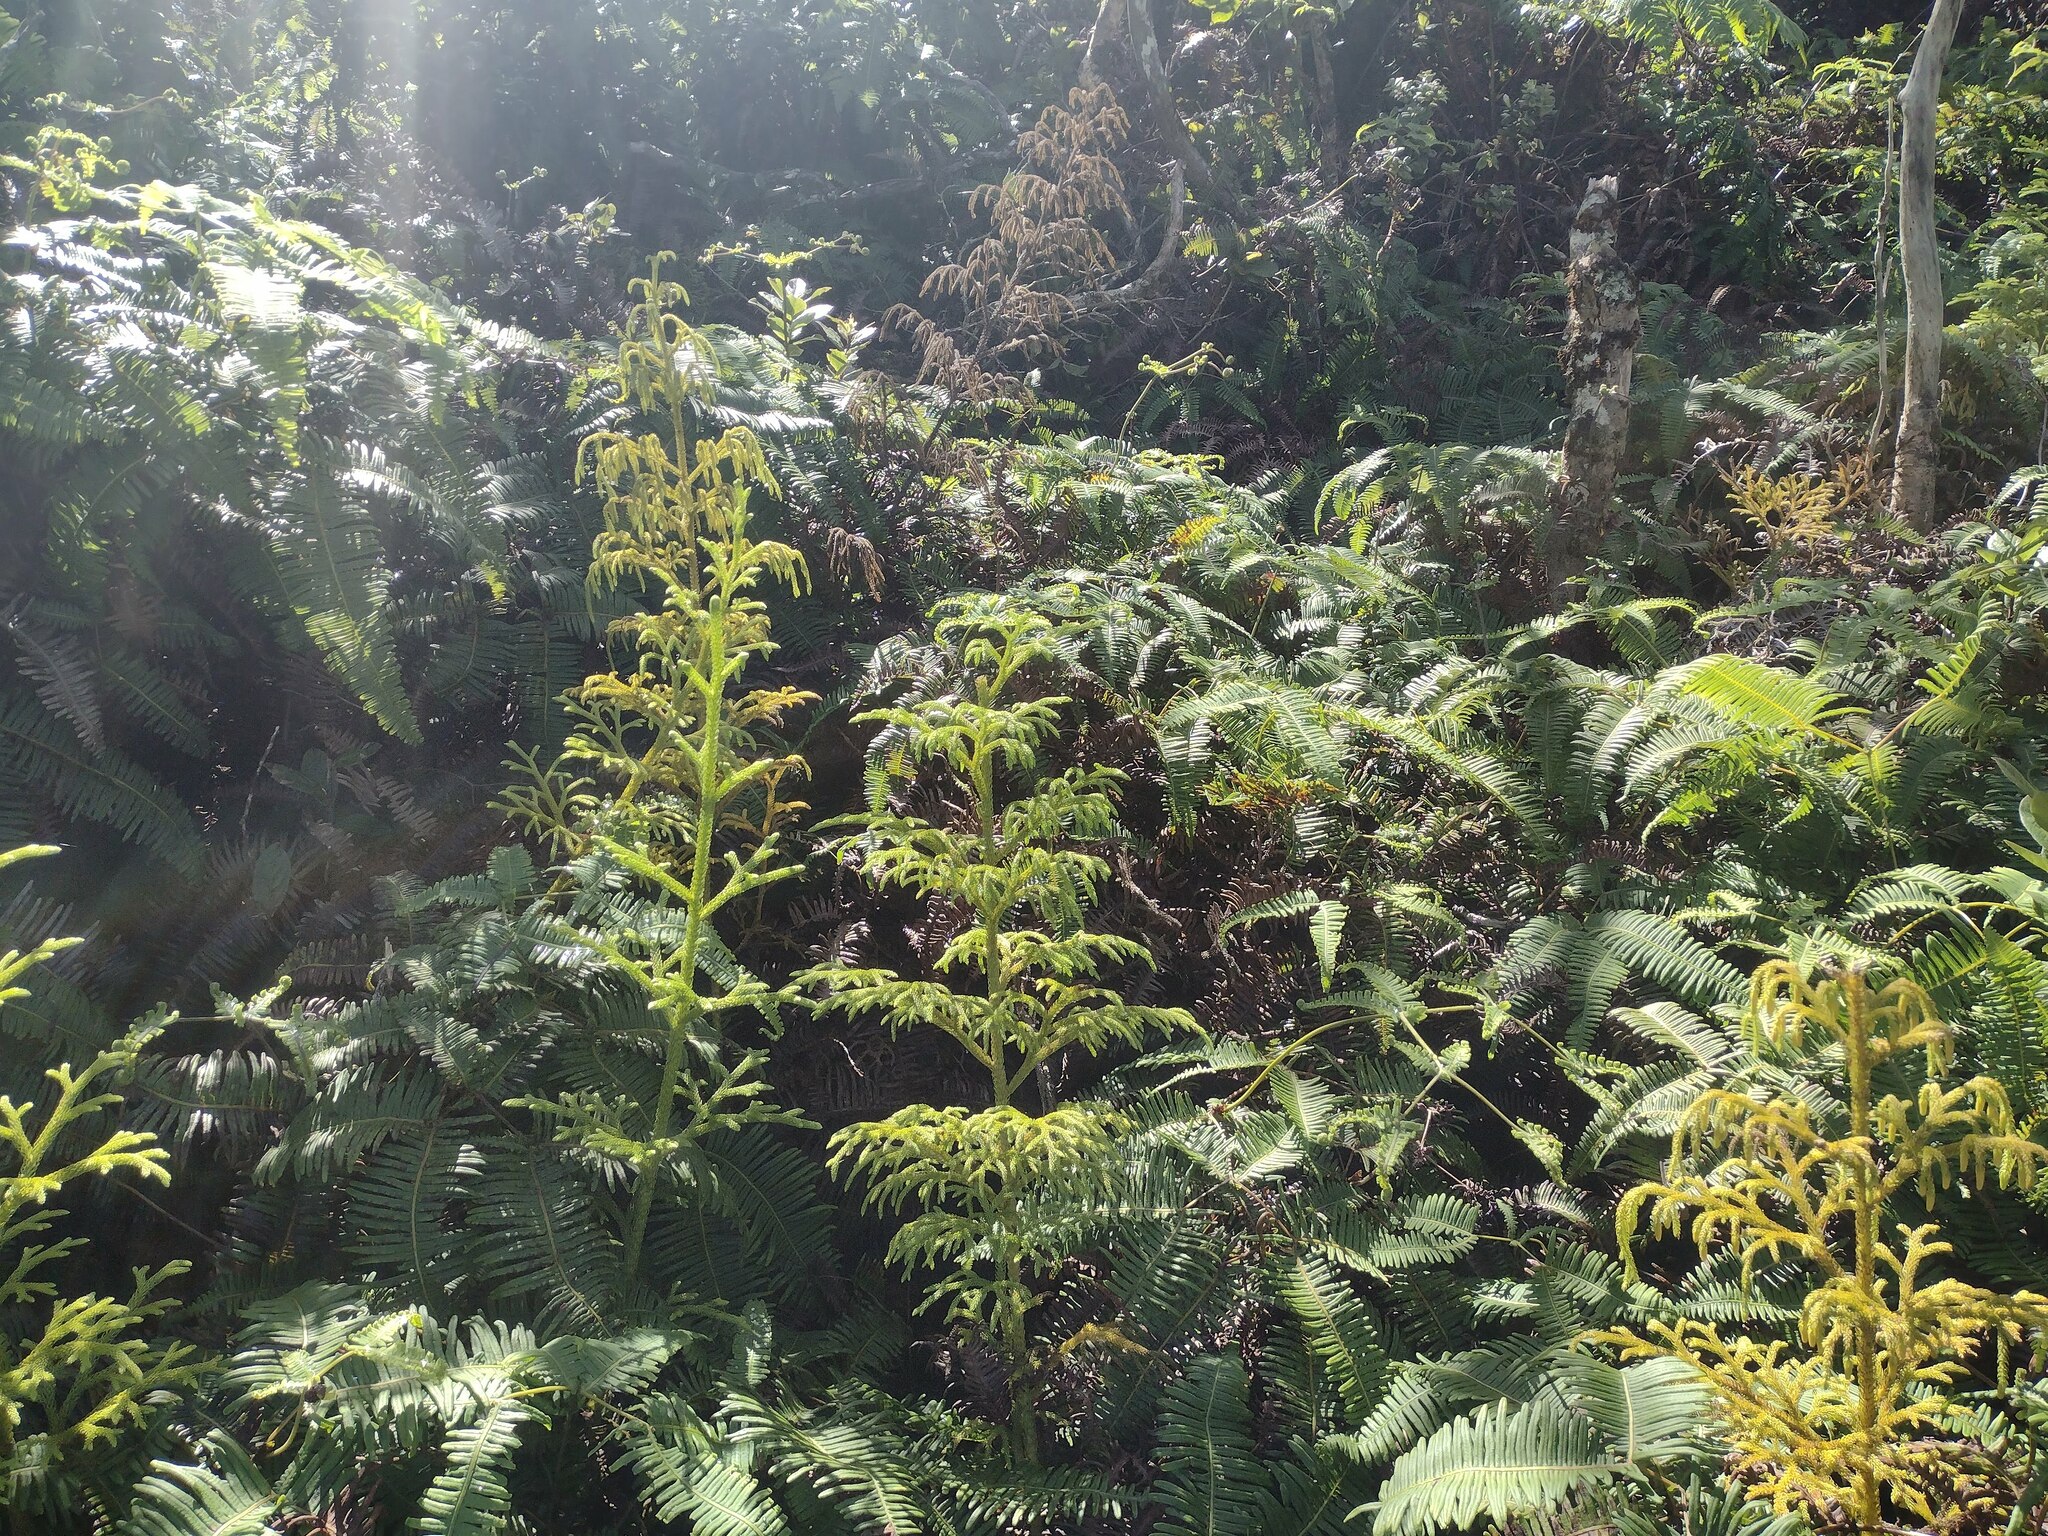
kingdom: Plantae
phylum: Tracheophyta
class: Lycopodiopsida
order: Lycopodiales
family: Lycopodiaceae
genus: Palhinhaea
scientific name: Palhinhaea cernua
